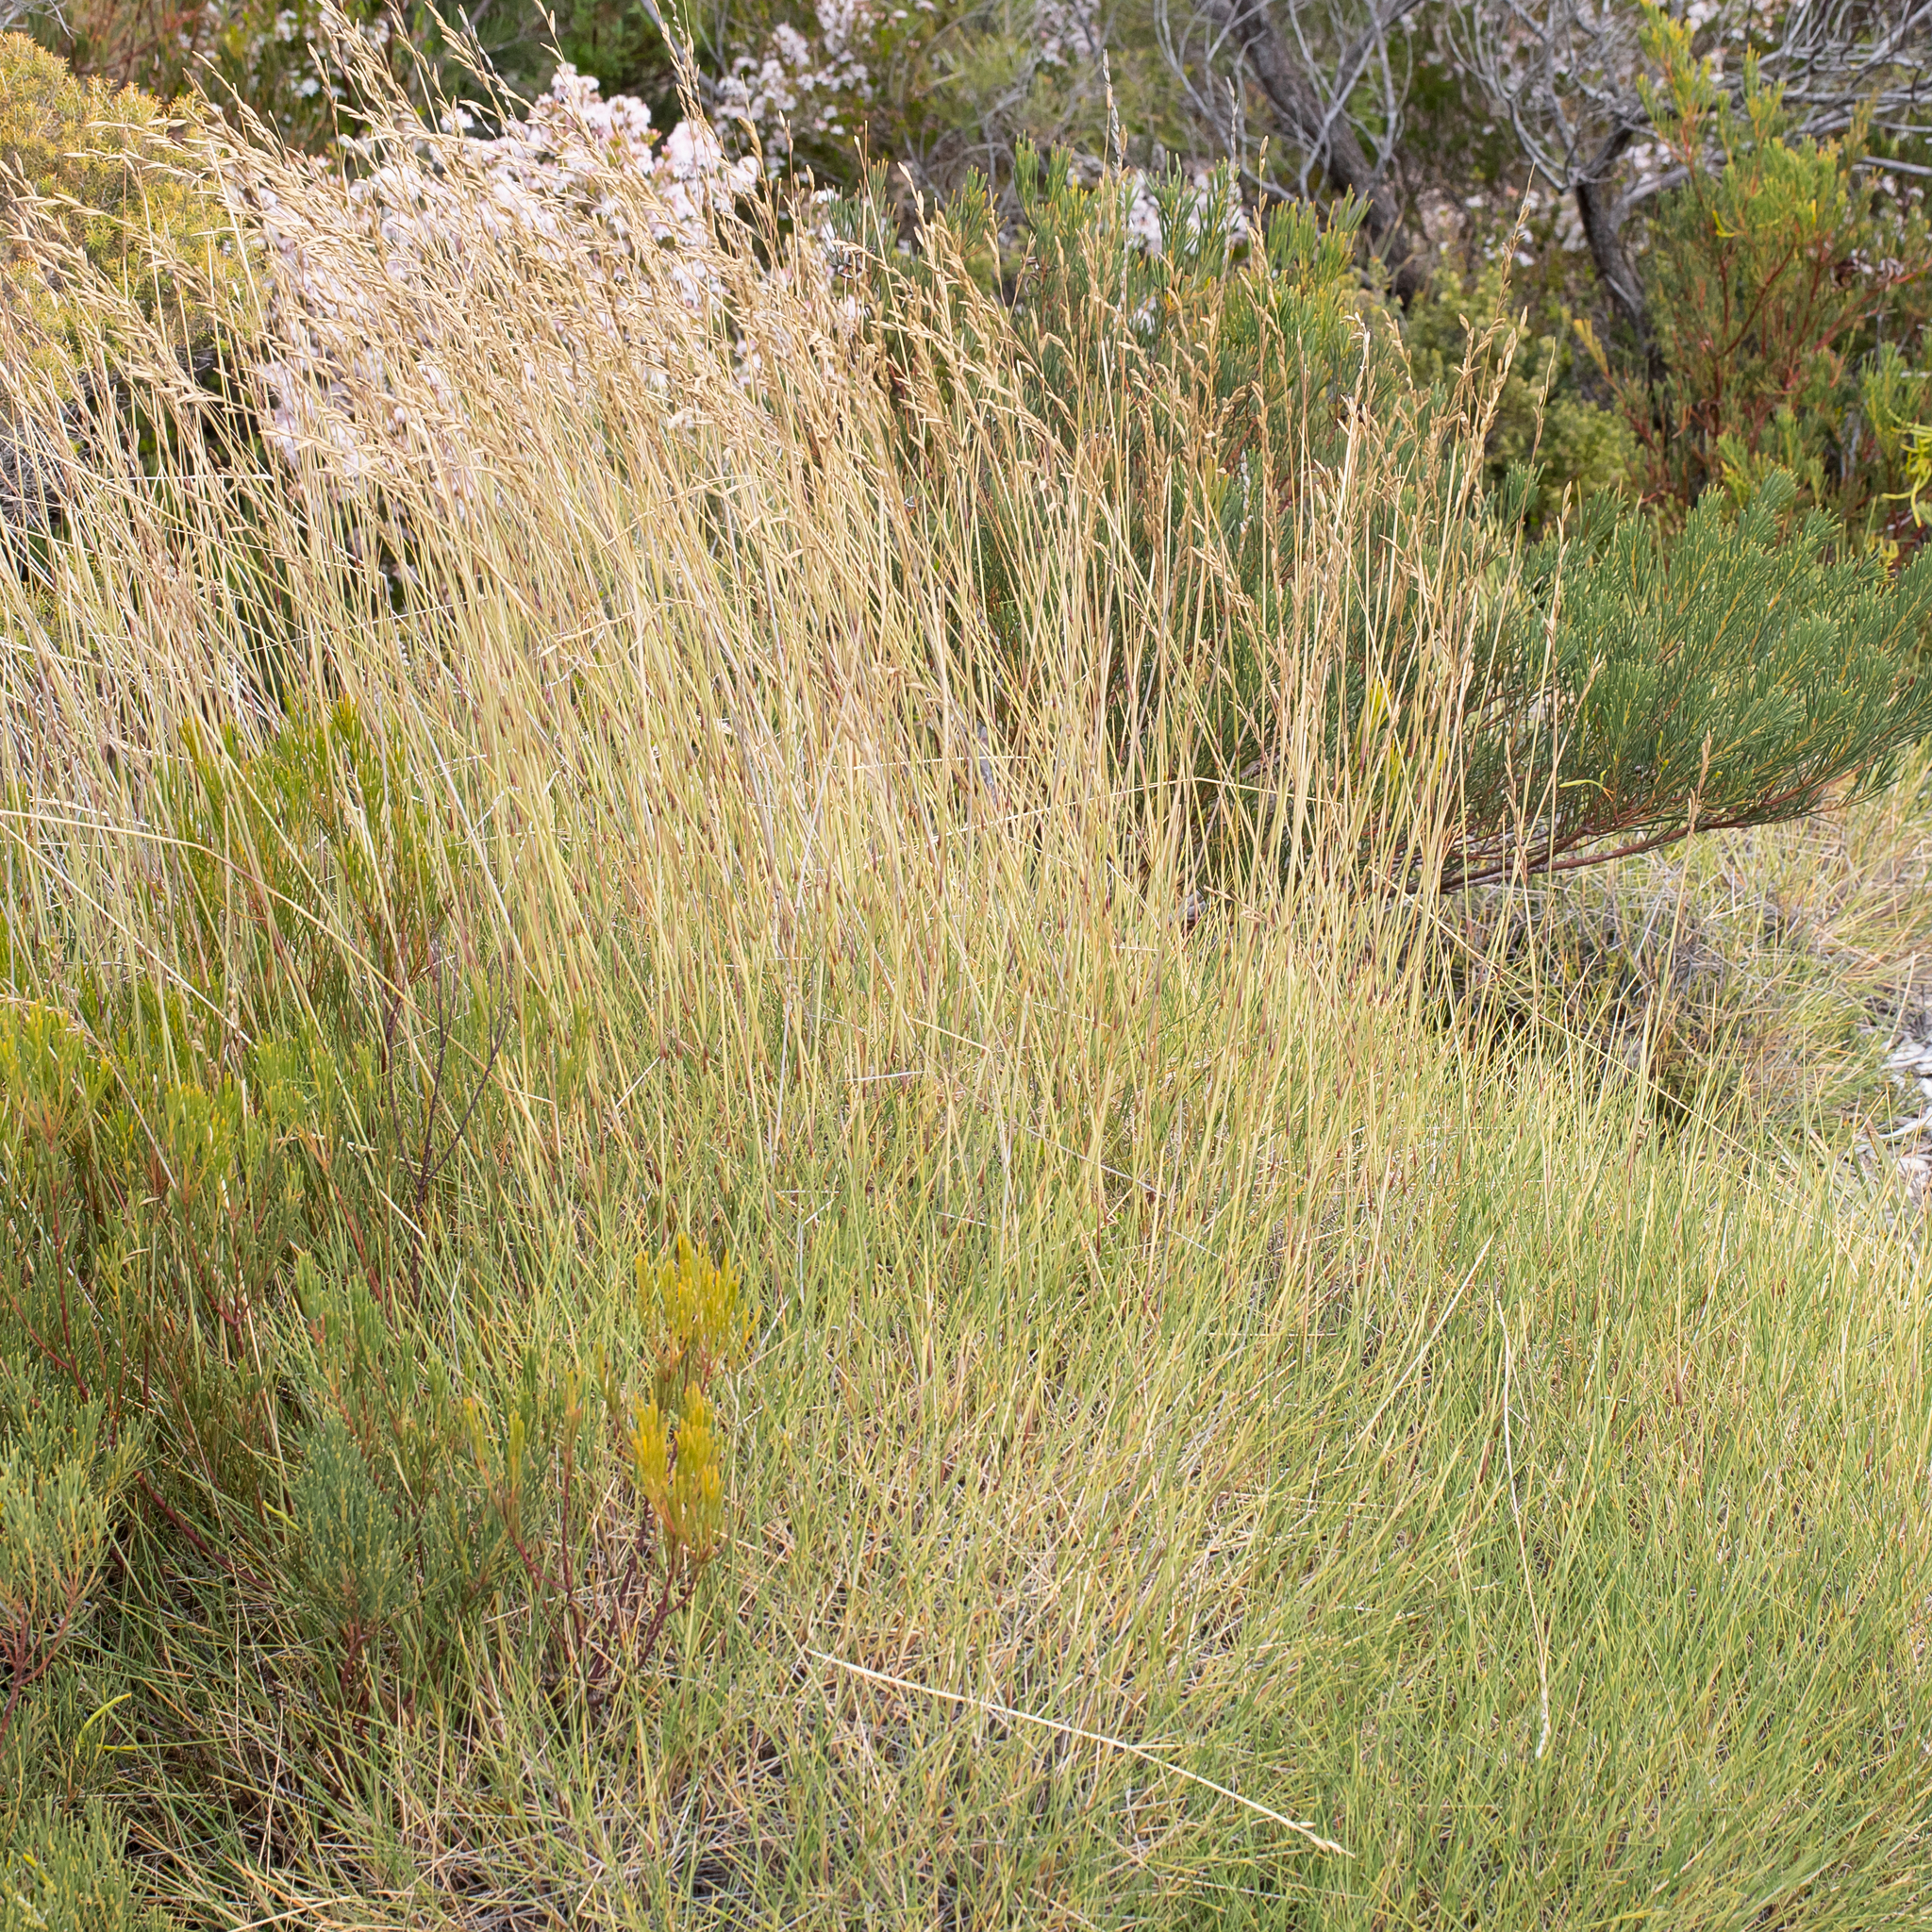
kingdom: Plantae
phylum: Tracheophyta
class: Liliopsida
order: Poales
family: Poaceae
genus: Triodia
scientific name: Triodia compacta
